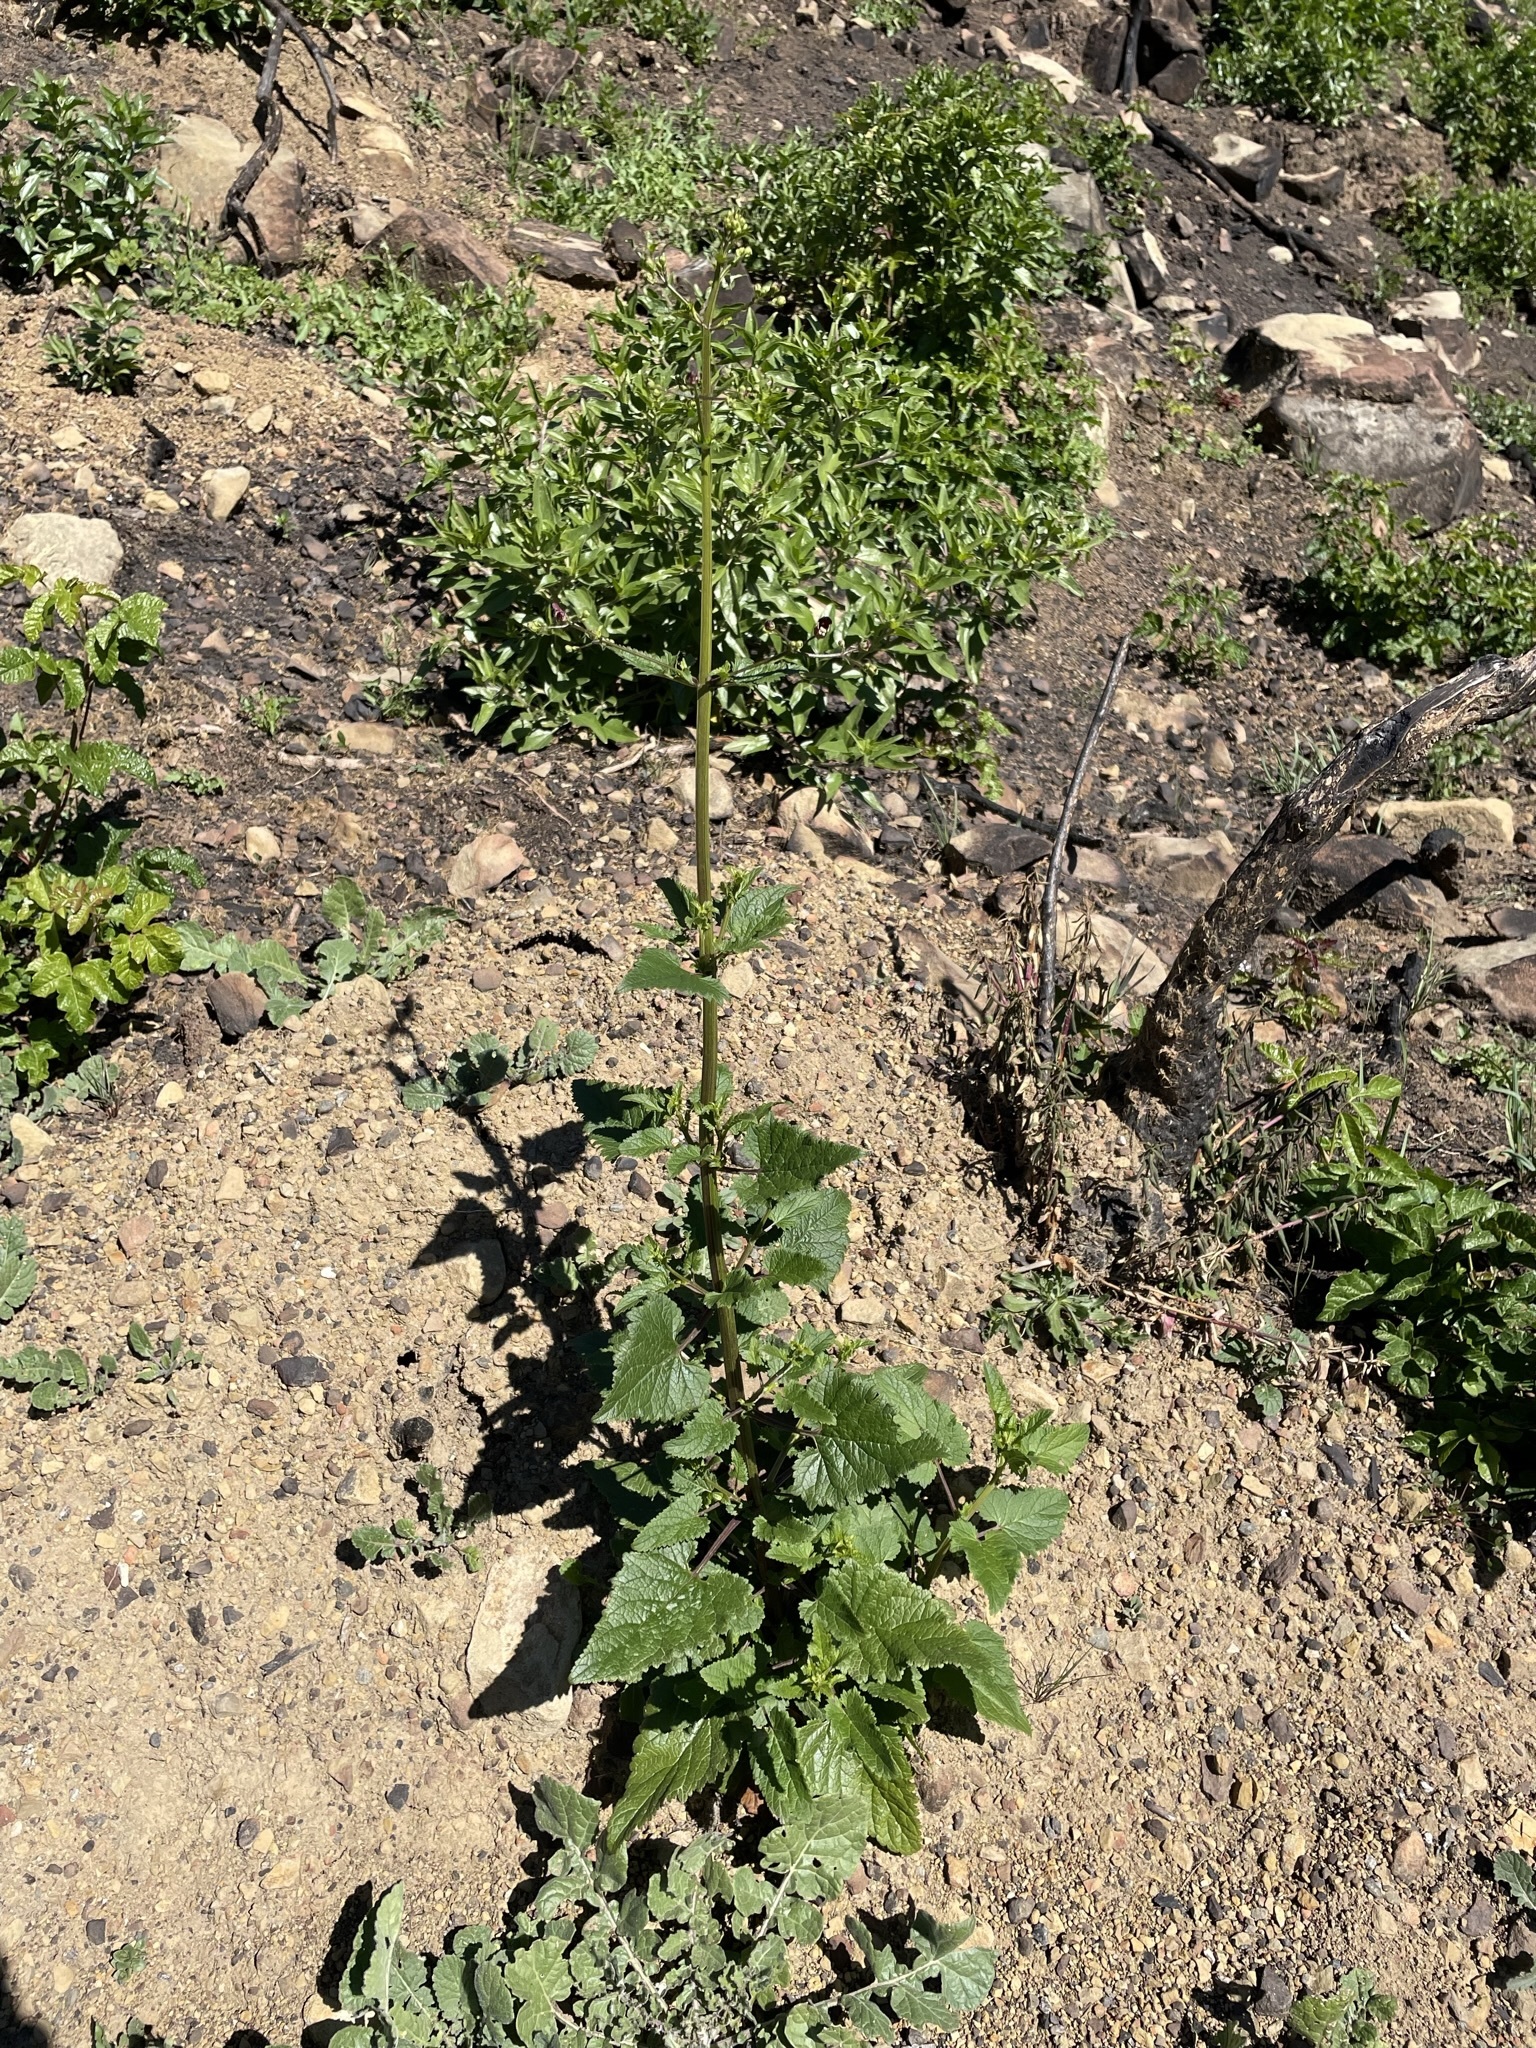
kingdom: Plantae
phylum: Tracheophyta
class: Magnoliopsida
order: Lamiales
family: Scrophulariaceae
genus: Scrophularia
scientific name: Scrophularia californica
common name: California figwort
